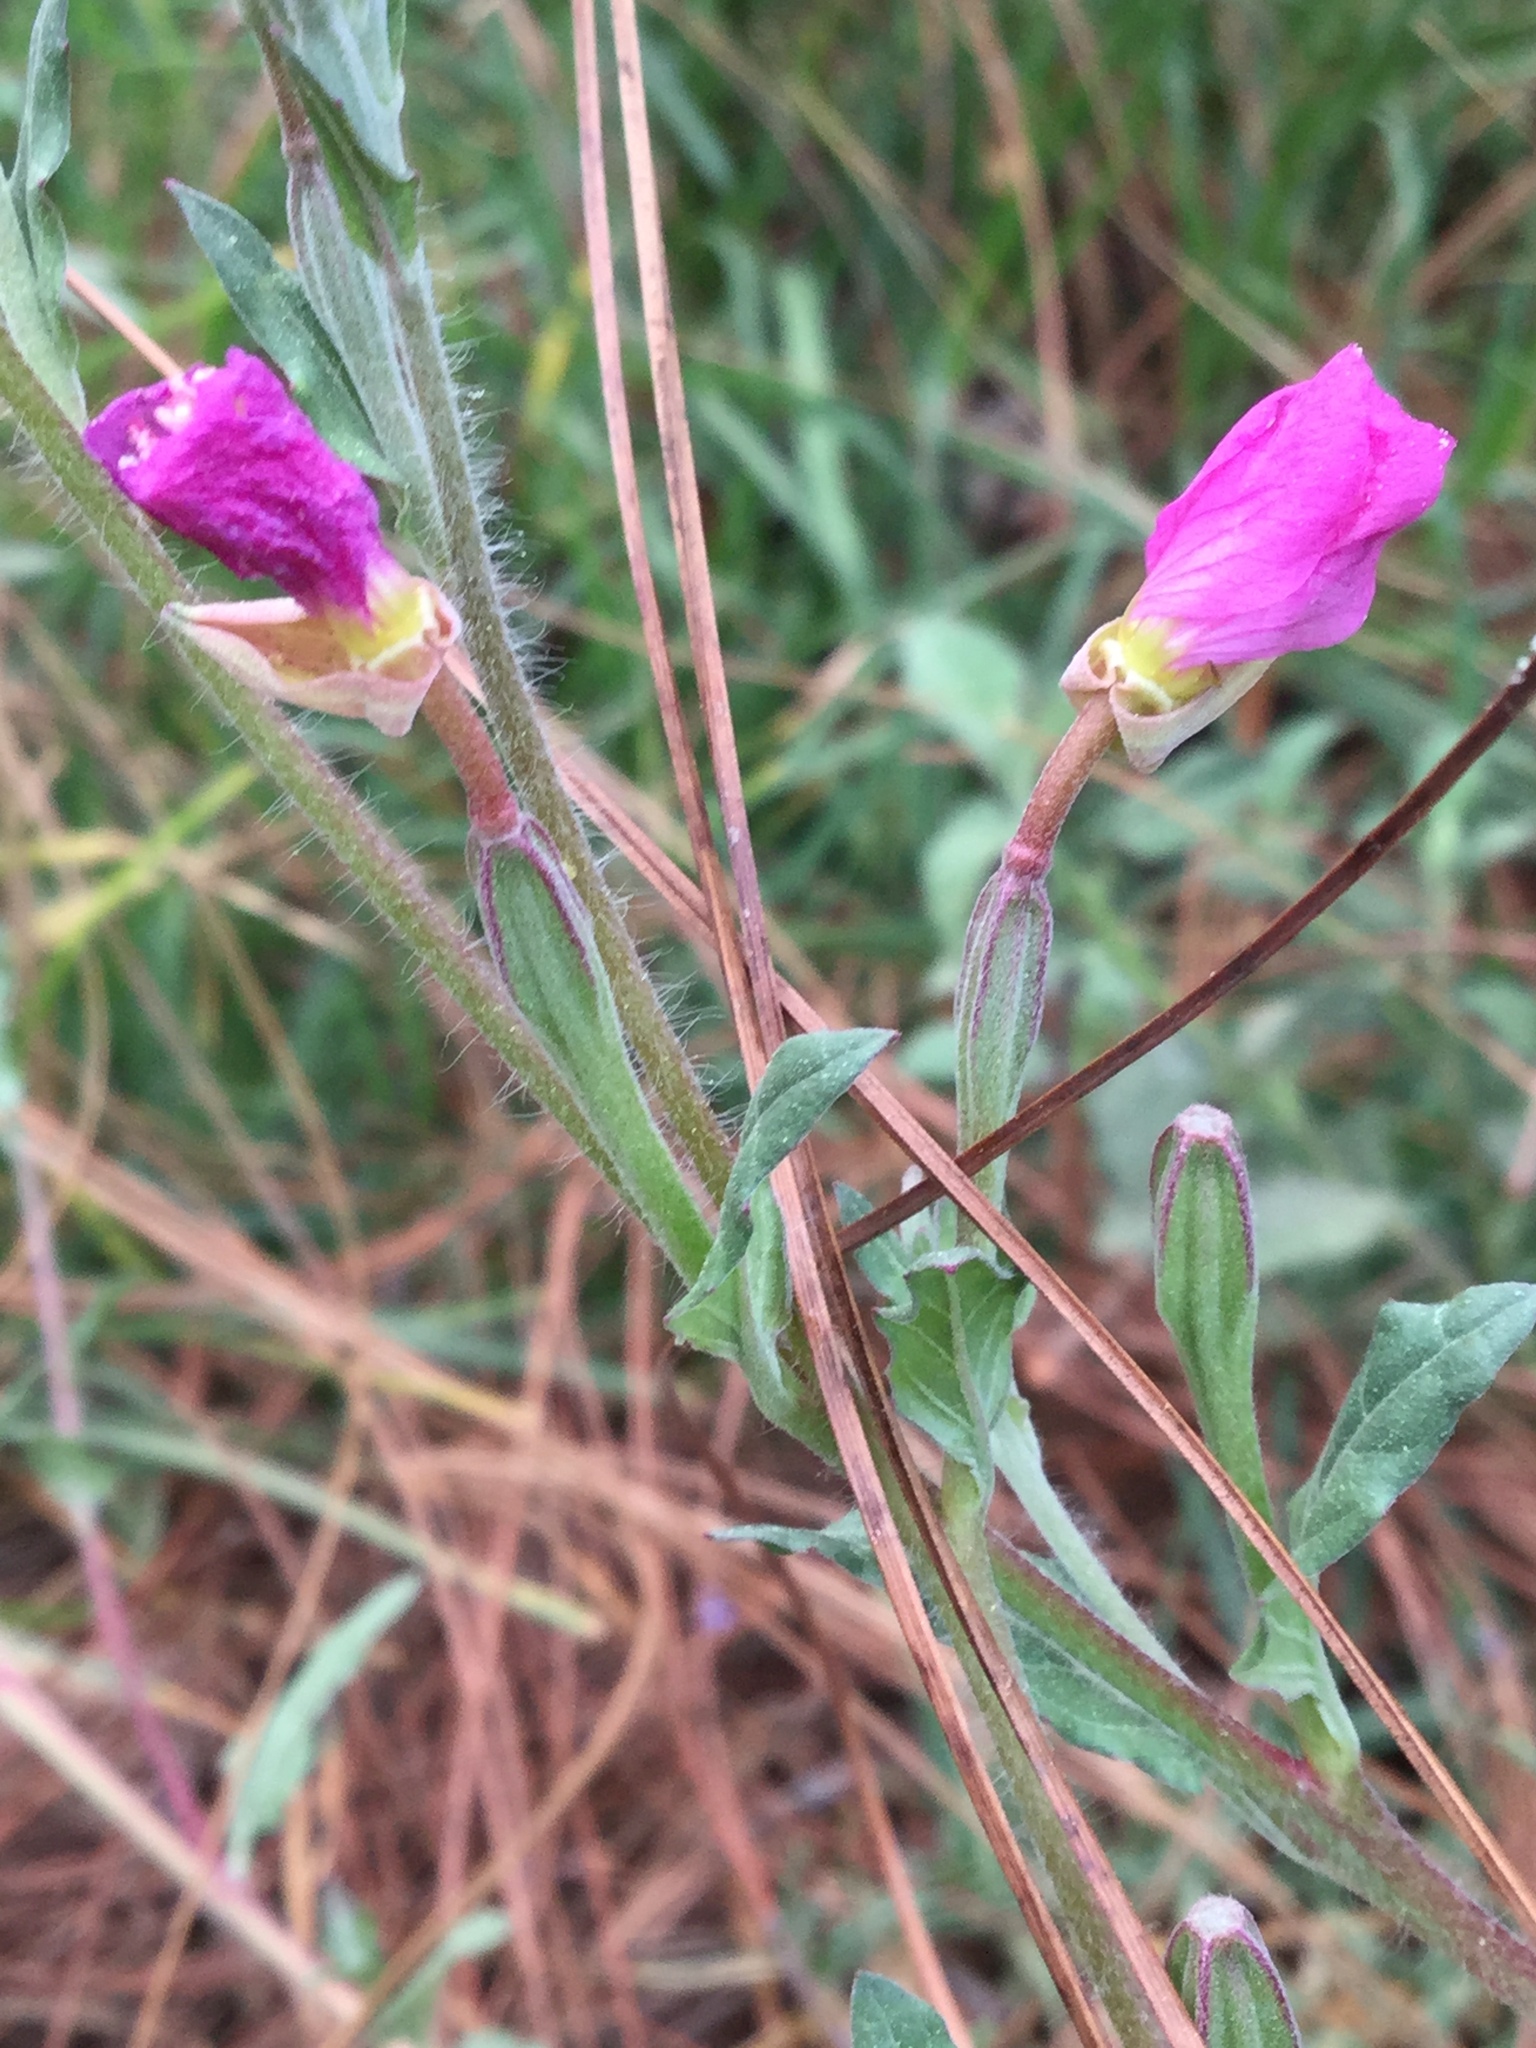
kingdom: Plantae
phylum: Tracheophyta
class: Magnoliopsida
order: Myrtales
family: Onagraceae
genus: Oenothera
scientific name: Oenothera rosea
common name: Rosy evening-primrose
